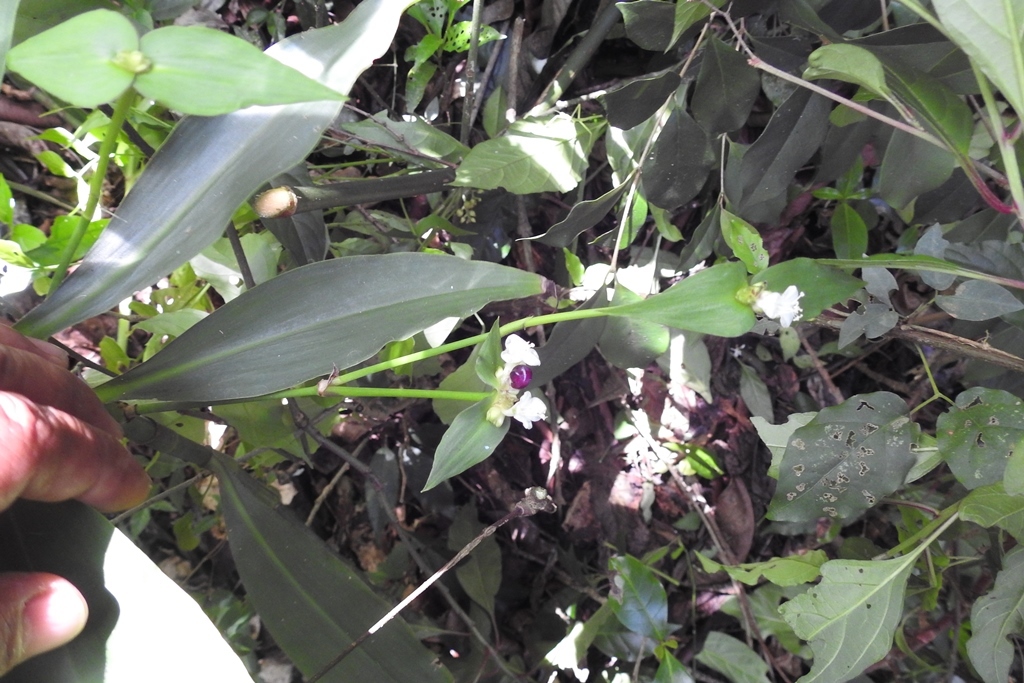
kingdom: Plantae
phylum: Tracheophyta
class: Liliopsida
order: Commelinales
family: Commelinaceae
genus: Tradescantia
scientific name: Tradescantia zanonia
